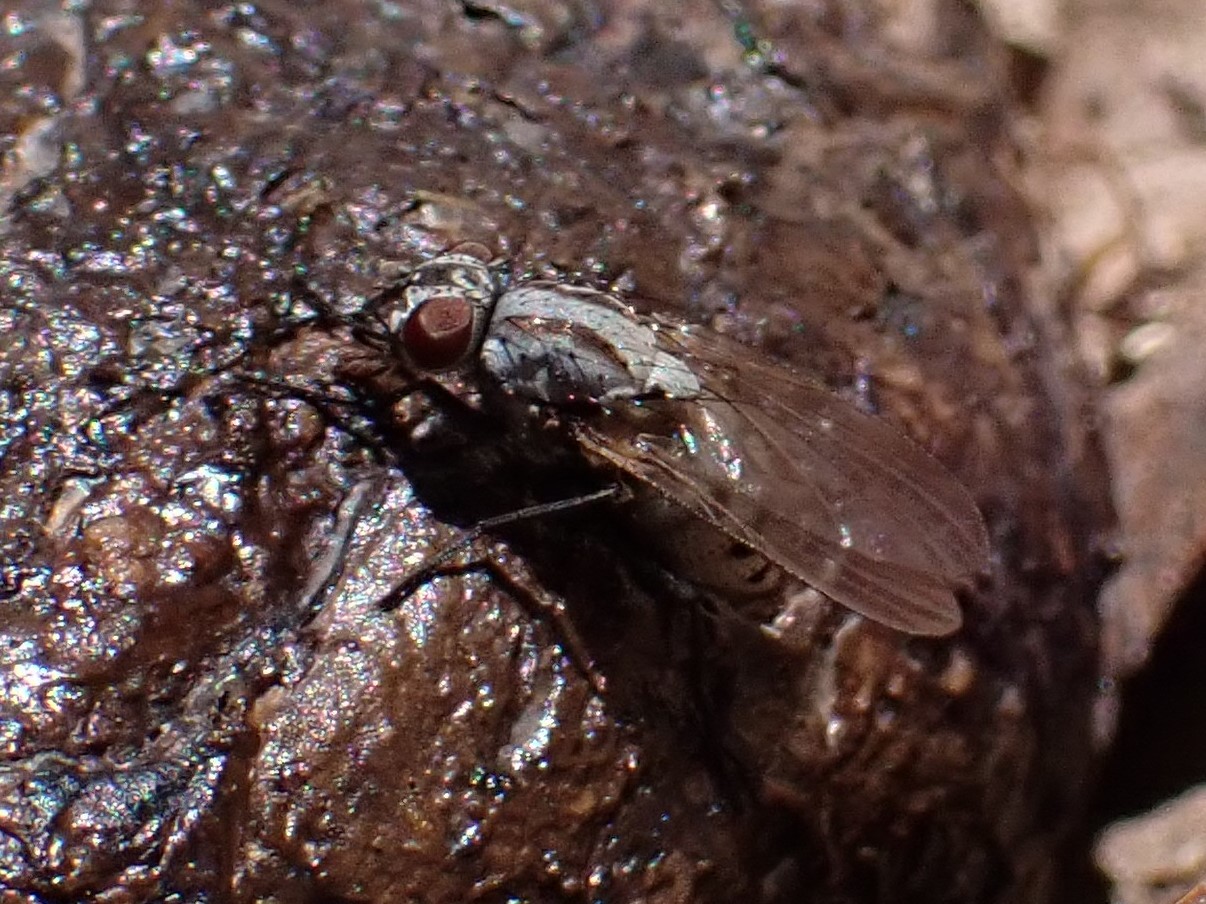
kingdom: Animalia
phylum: Arthropoda
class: Insecta
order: Diptera
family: Anthomyiidae
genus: Anthomyia
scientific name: Anthomyia oculifera
